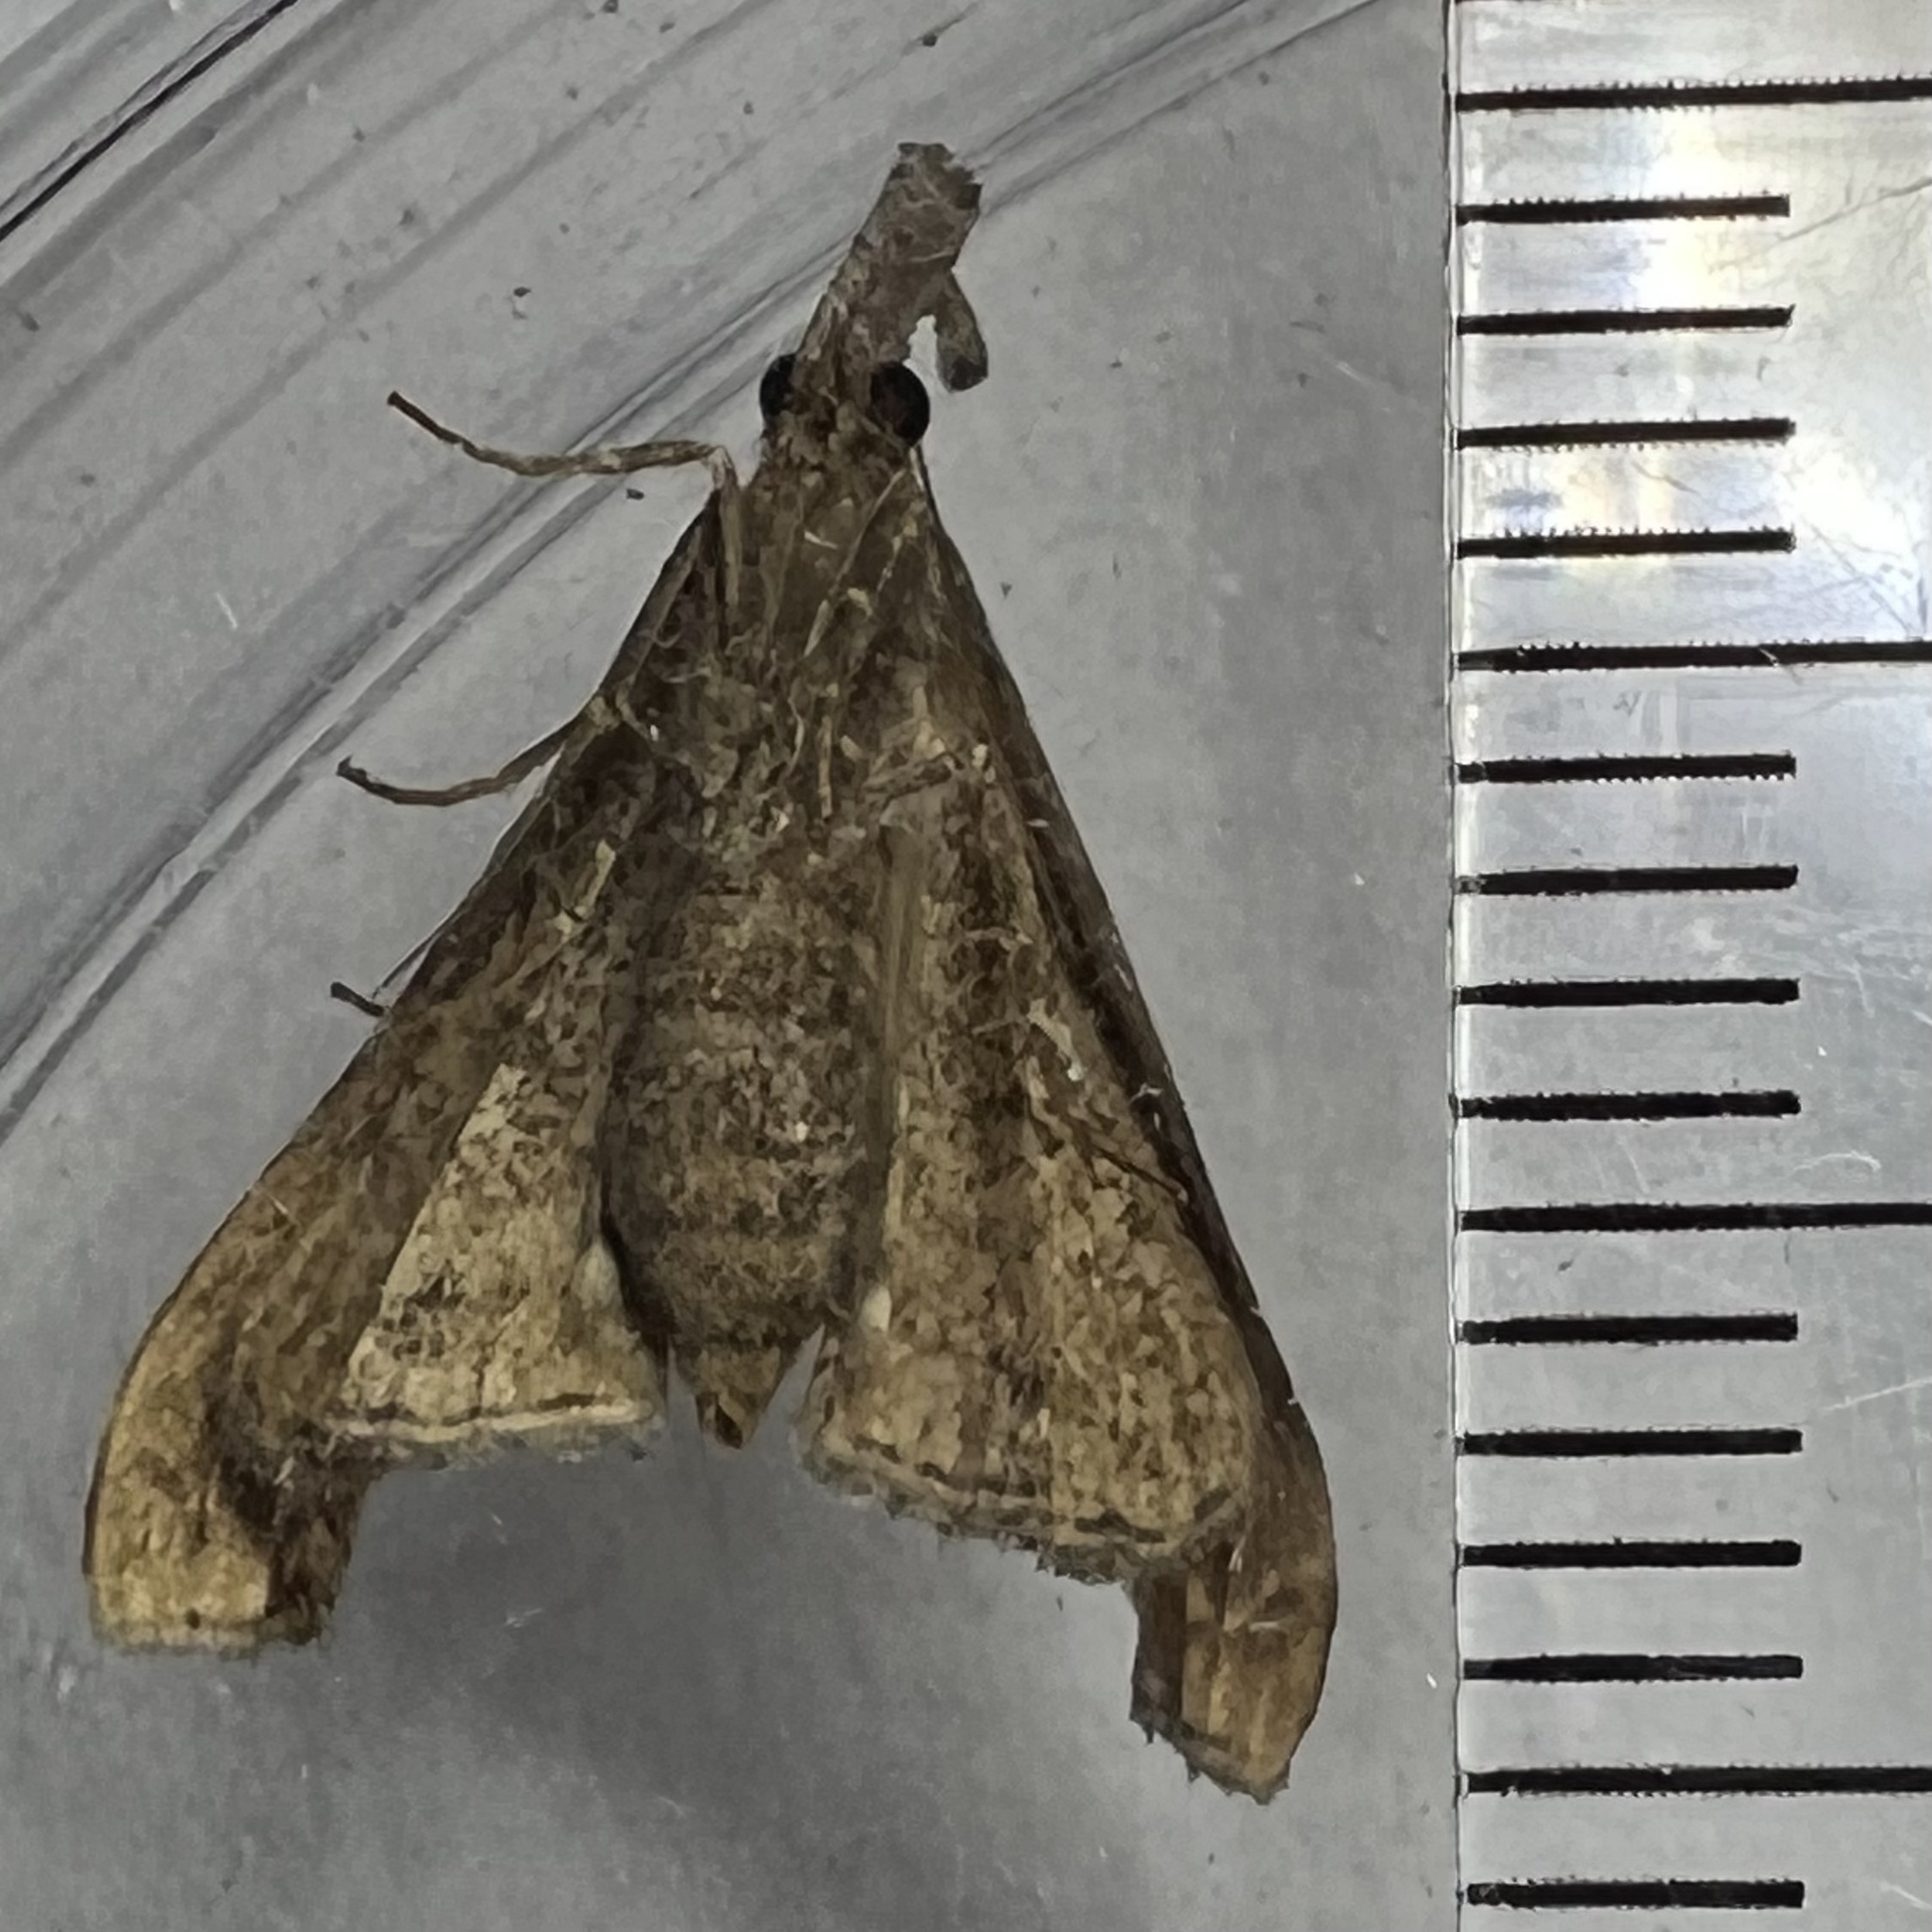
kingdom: Animalia
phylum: Arthropoda
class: Insecta
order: Lepidoptera
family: Erebidae
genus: Palthis
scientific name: Palthis angulalis
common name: Dark-spotted palthis moth
